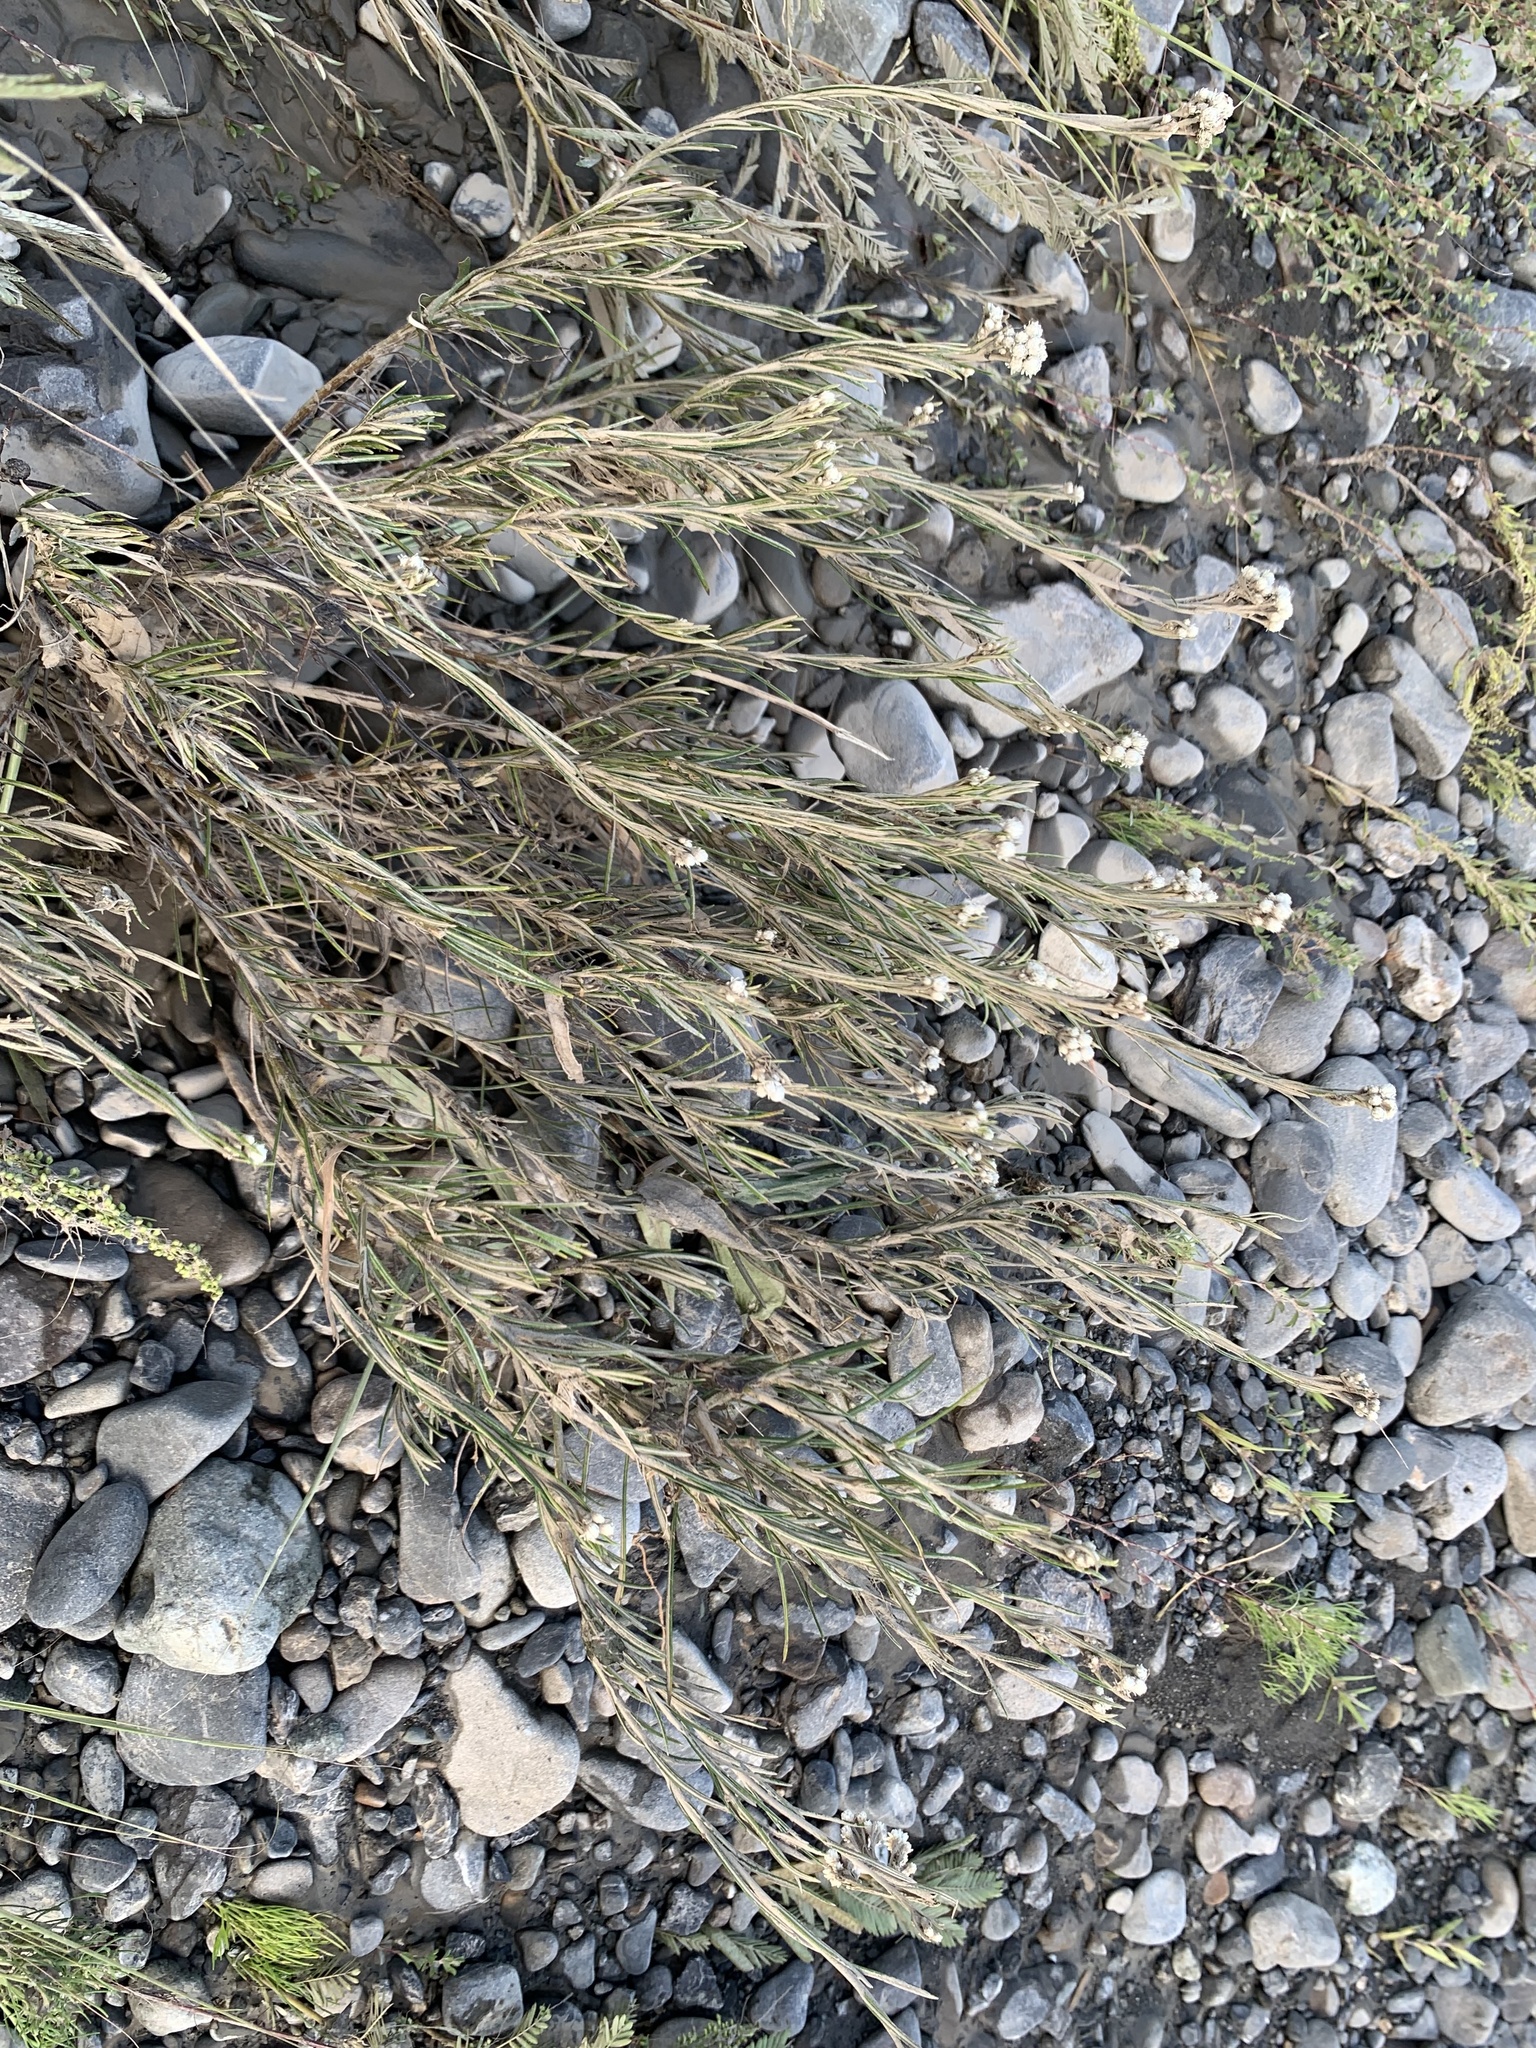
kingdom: Plantae
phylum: Tracheophyta
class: Magnoliopsida
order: Asterales
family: Asteraceae
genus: Anaphalis
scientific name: Anaphalis margaritacea
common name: Pearly everlasting
